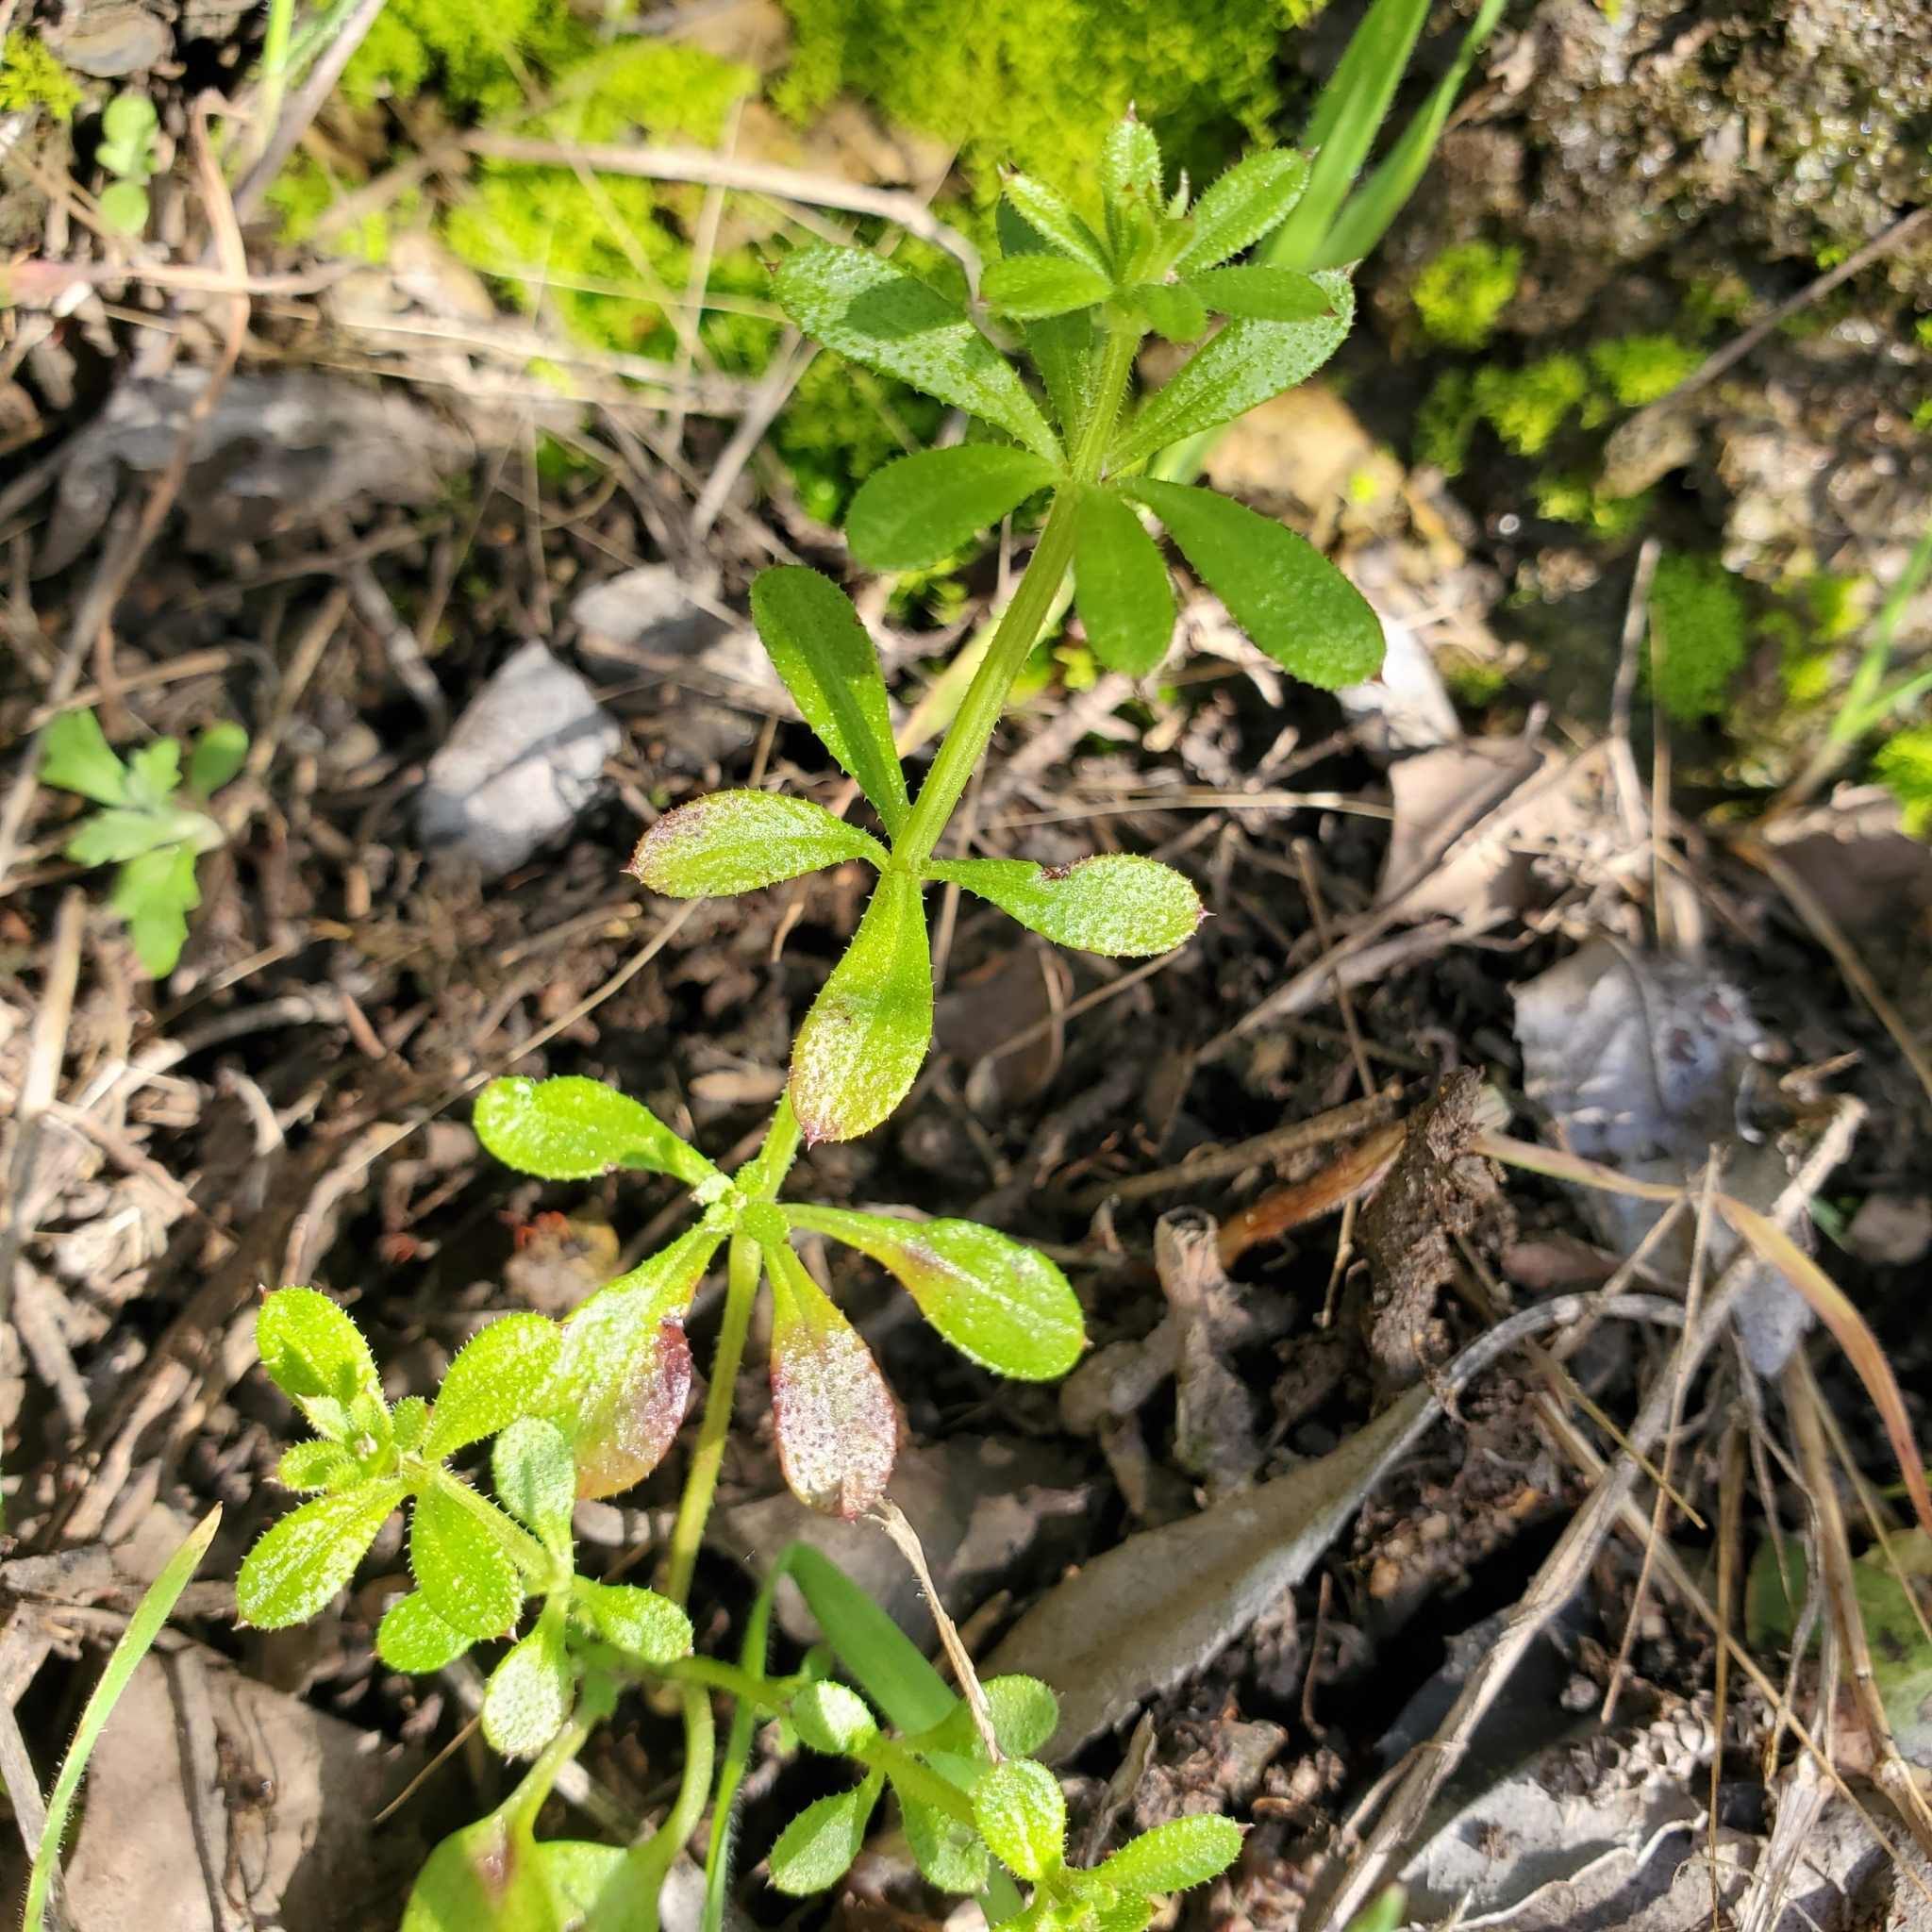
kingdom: Plantae
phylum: Tracheophyta
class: Magnoliopsida
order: Gentianales
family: Rubiaceae
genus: Galium
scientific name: Galium aparine
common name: Cleavers
